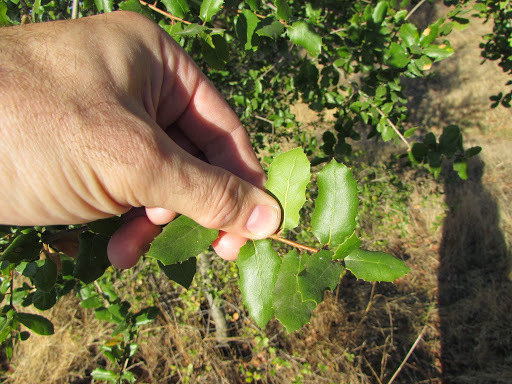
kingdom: Plantae
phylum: Tracheophyta
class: Magnoliopsida
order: Fagales
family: Fagaceae
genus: Quercus
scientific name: Quercus wislizeni
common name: Interior live oak
